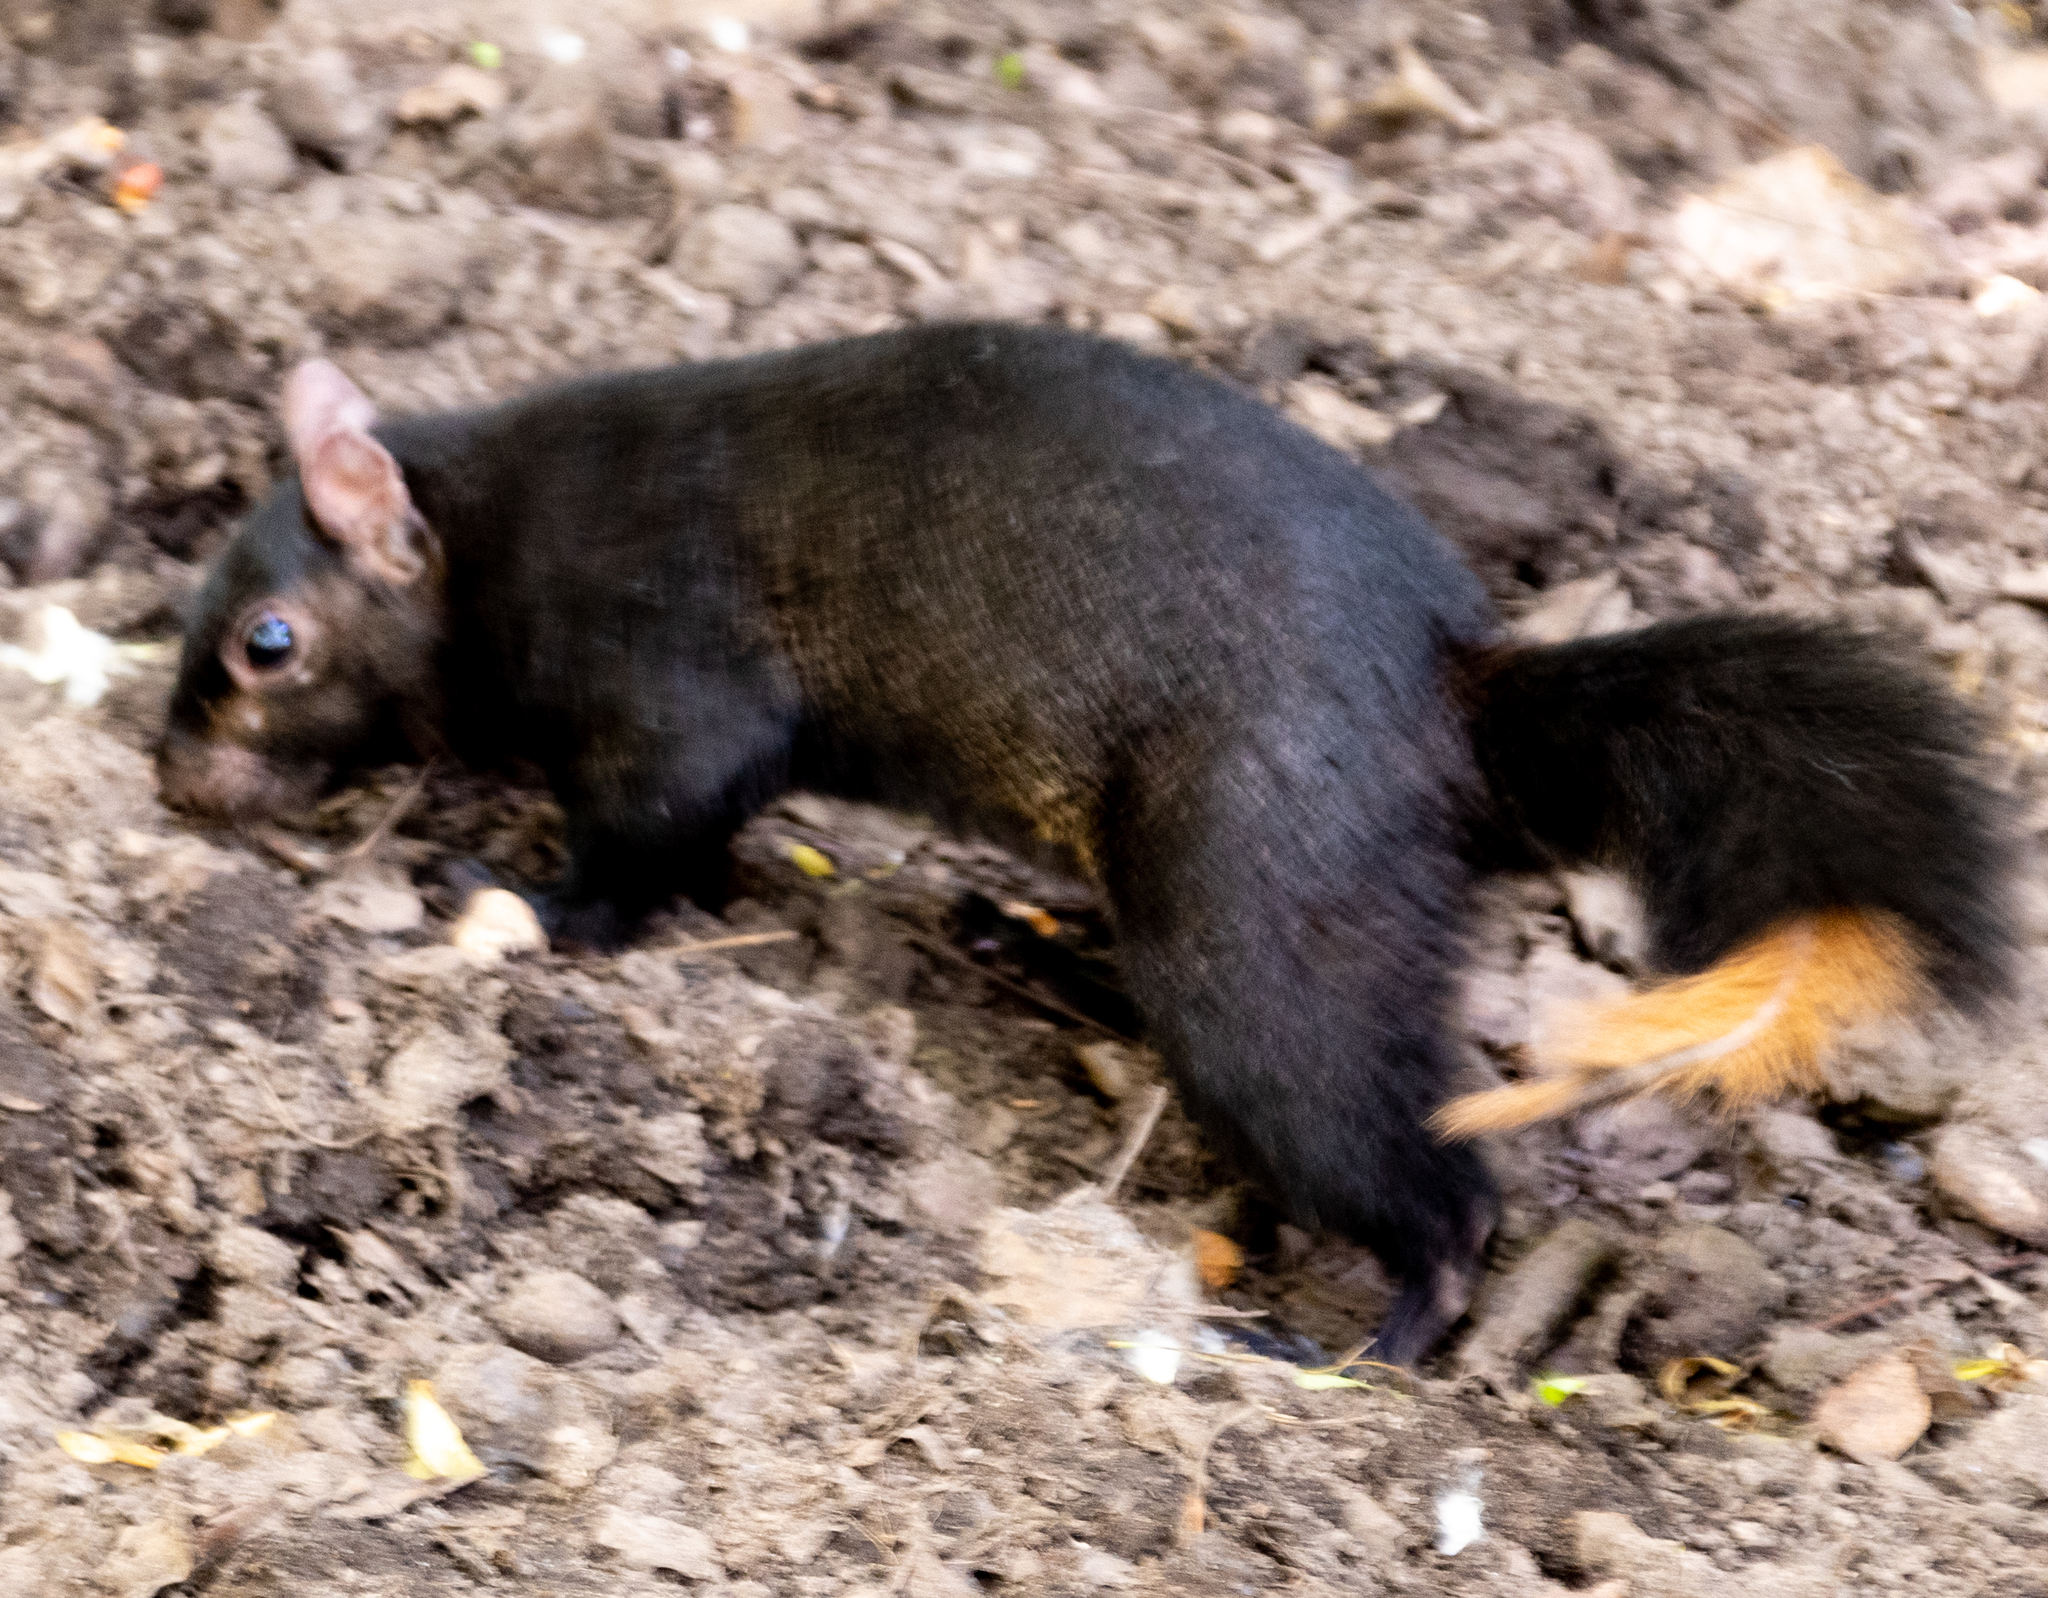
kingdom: Animalia
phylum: Chordata
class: Mammalia
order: Rodentia
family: Sciuridae
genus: Sciurus
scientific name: Sciurus carolinensis
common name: Eastern gray squirrel
